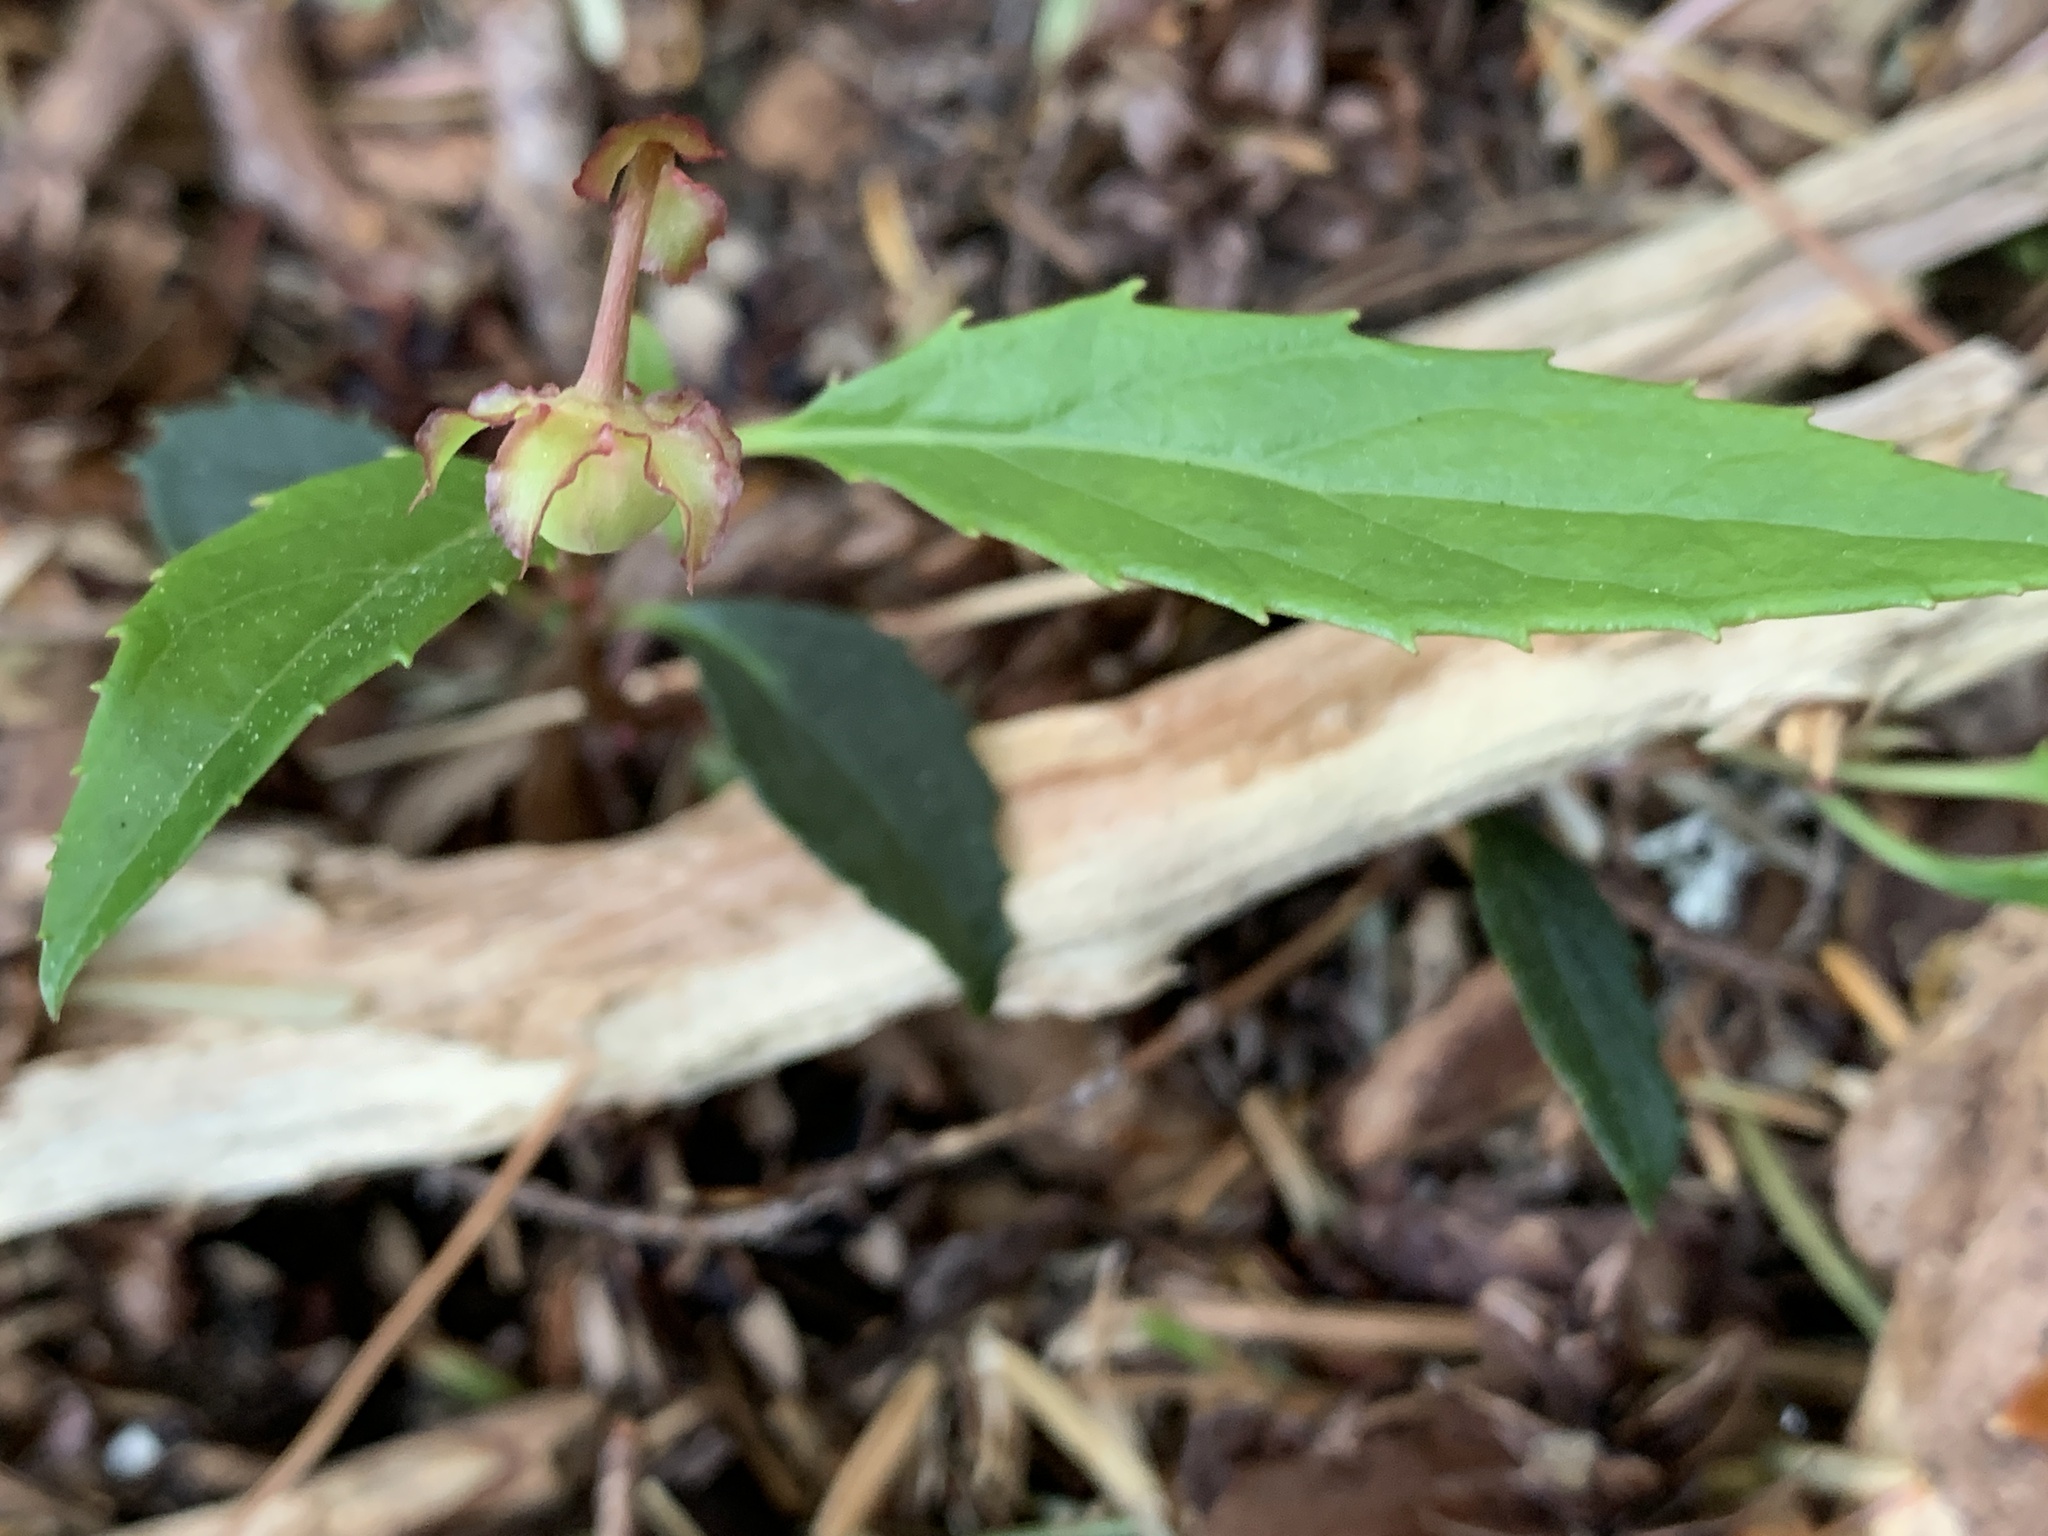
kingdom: Plantae
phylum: Tracheophyta
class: Magnoliopsida
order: Ericales
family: Ericaceae
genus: Chimaphila
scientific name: Chimaphila menziesii
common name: Menzies' pipsissewa
